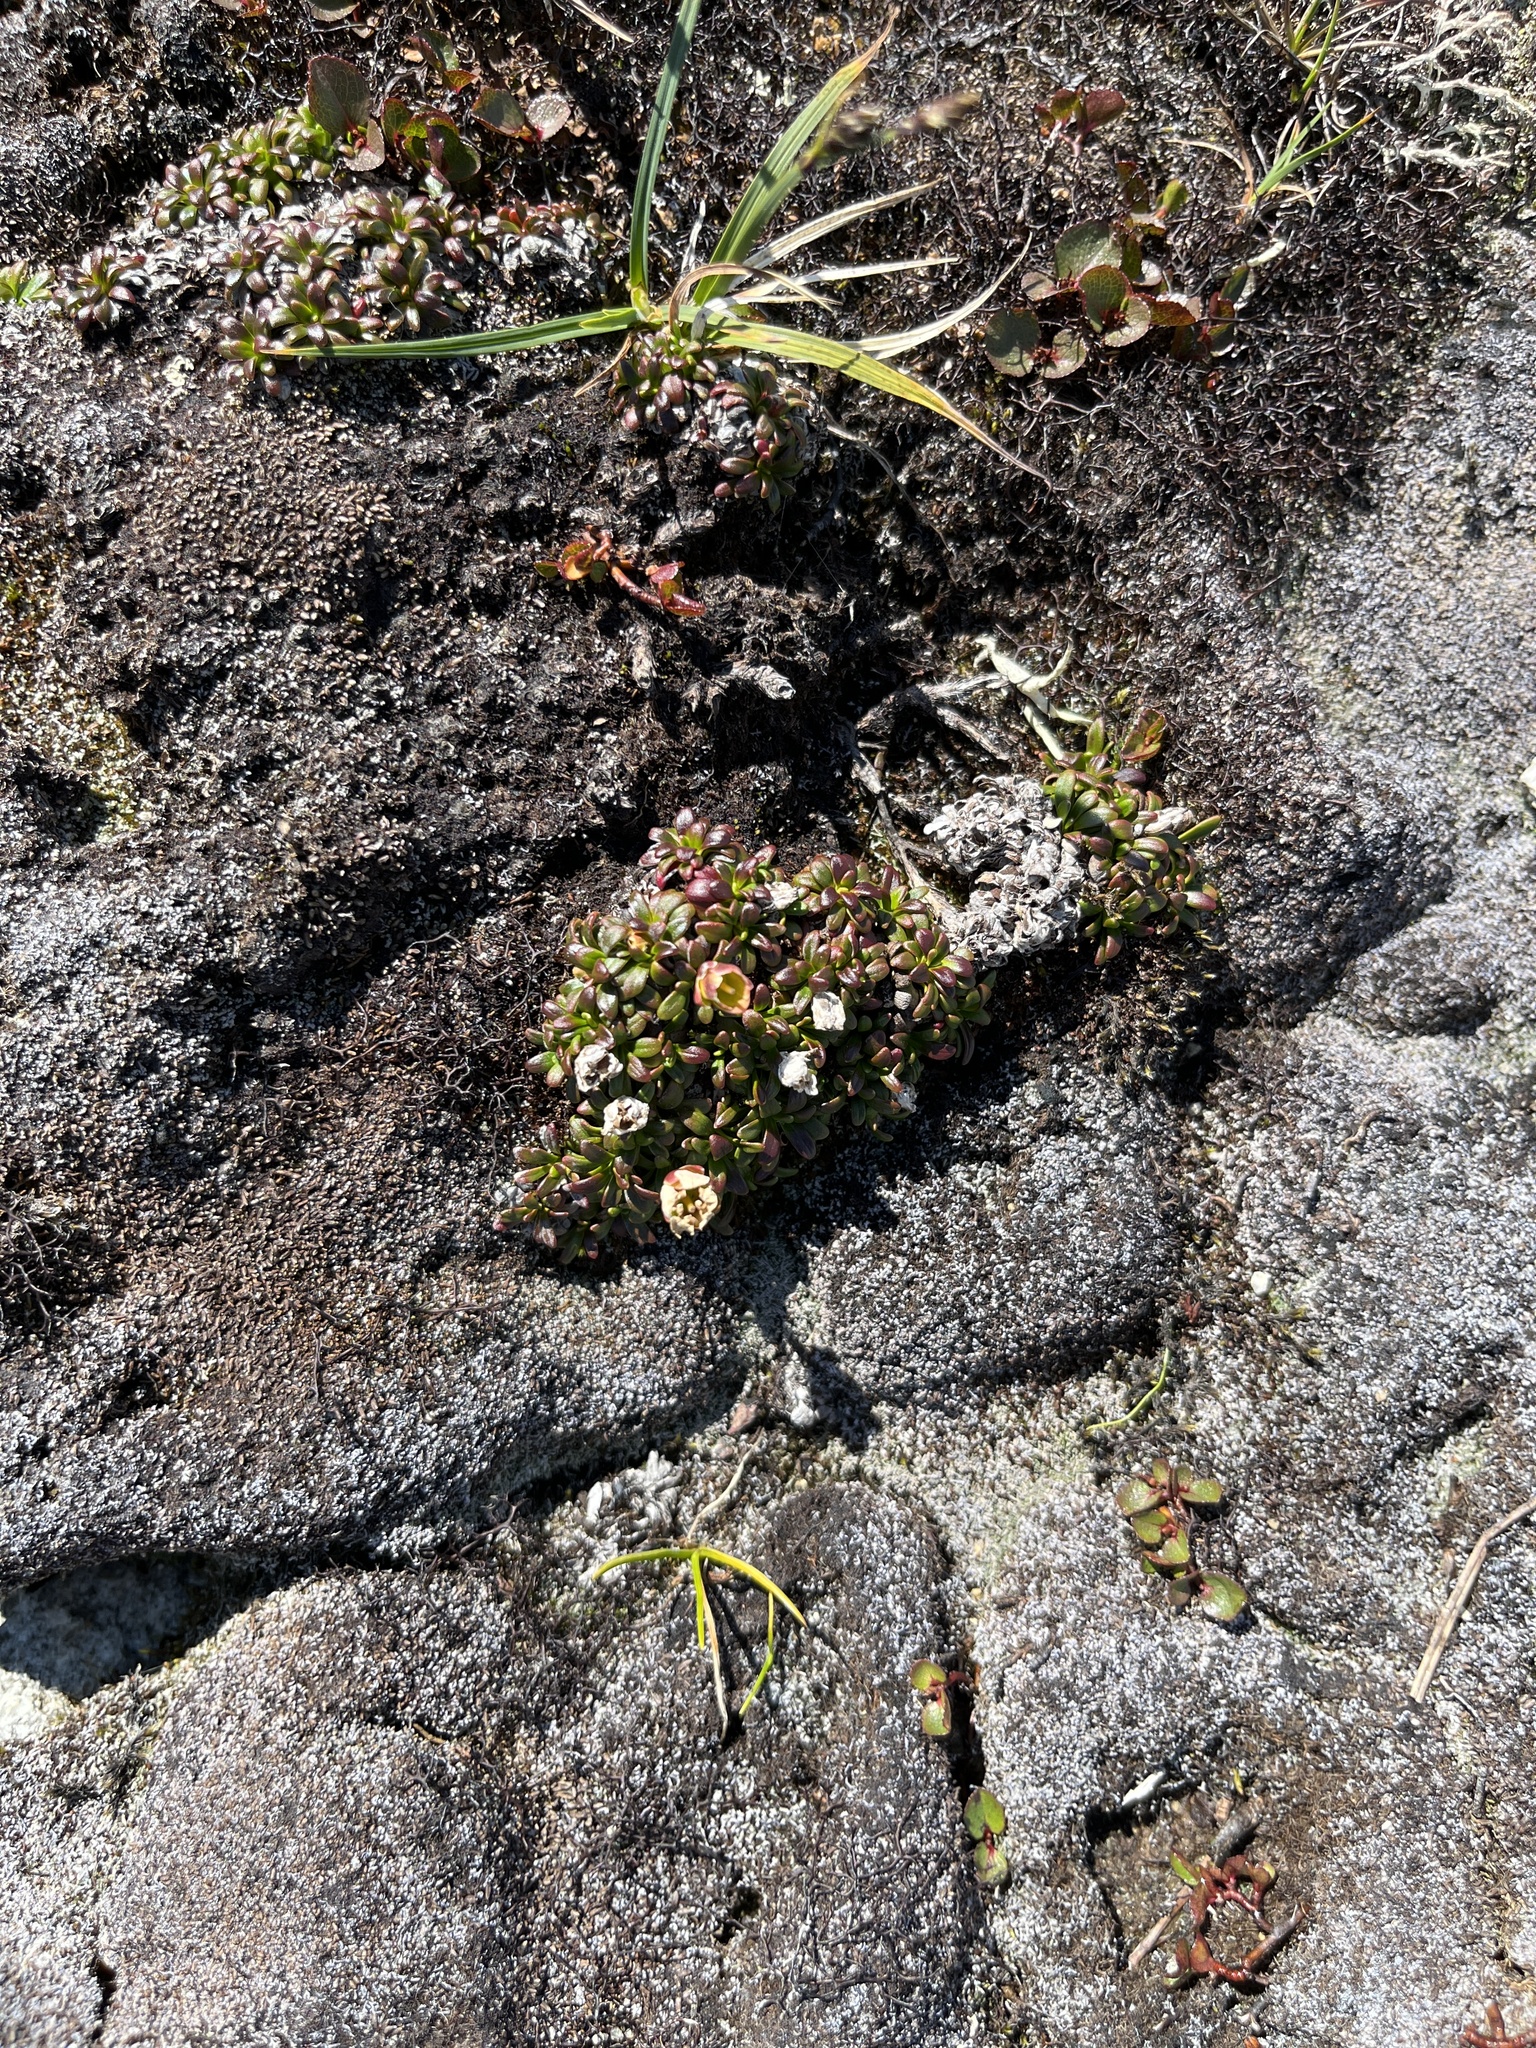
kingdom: Plantae
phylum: Tracheophyta
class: Magnoliopsida
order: Ericales
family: Diapensiaceae
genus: Diapensia
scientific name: Diapensia lapponica
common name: Diapensia
